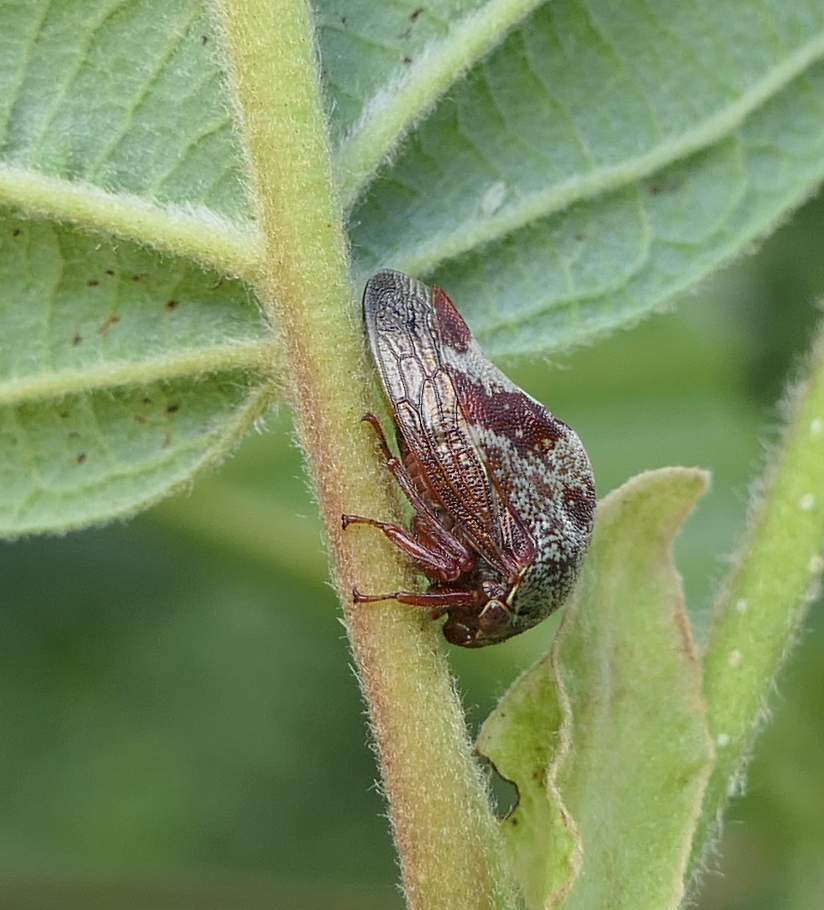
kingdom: Animalia
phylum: Arthropoda
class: Insecta
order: Hemiptera
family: Membracidae
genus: Carynota
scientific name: Carynota marmorata
